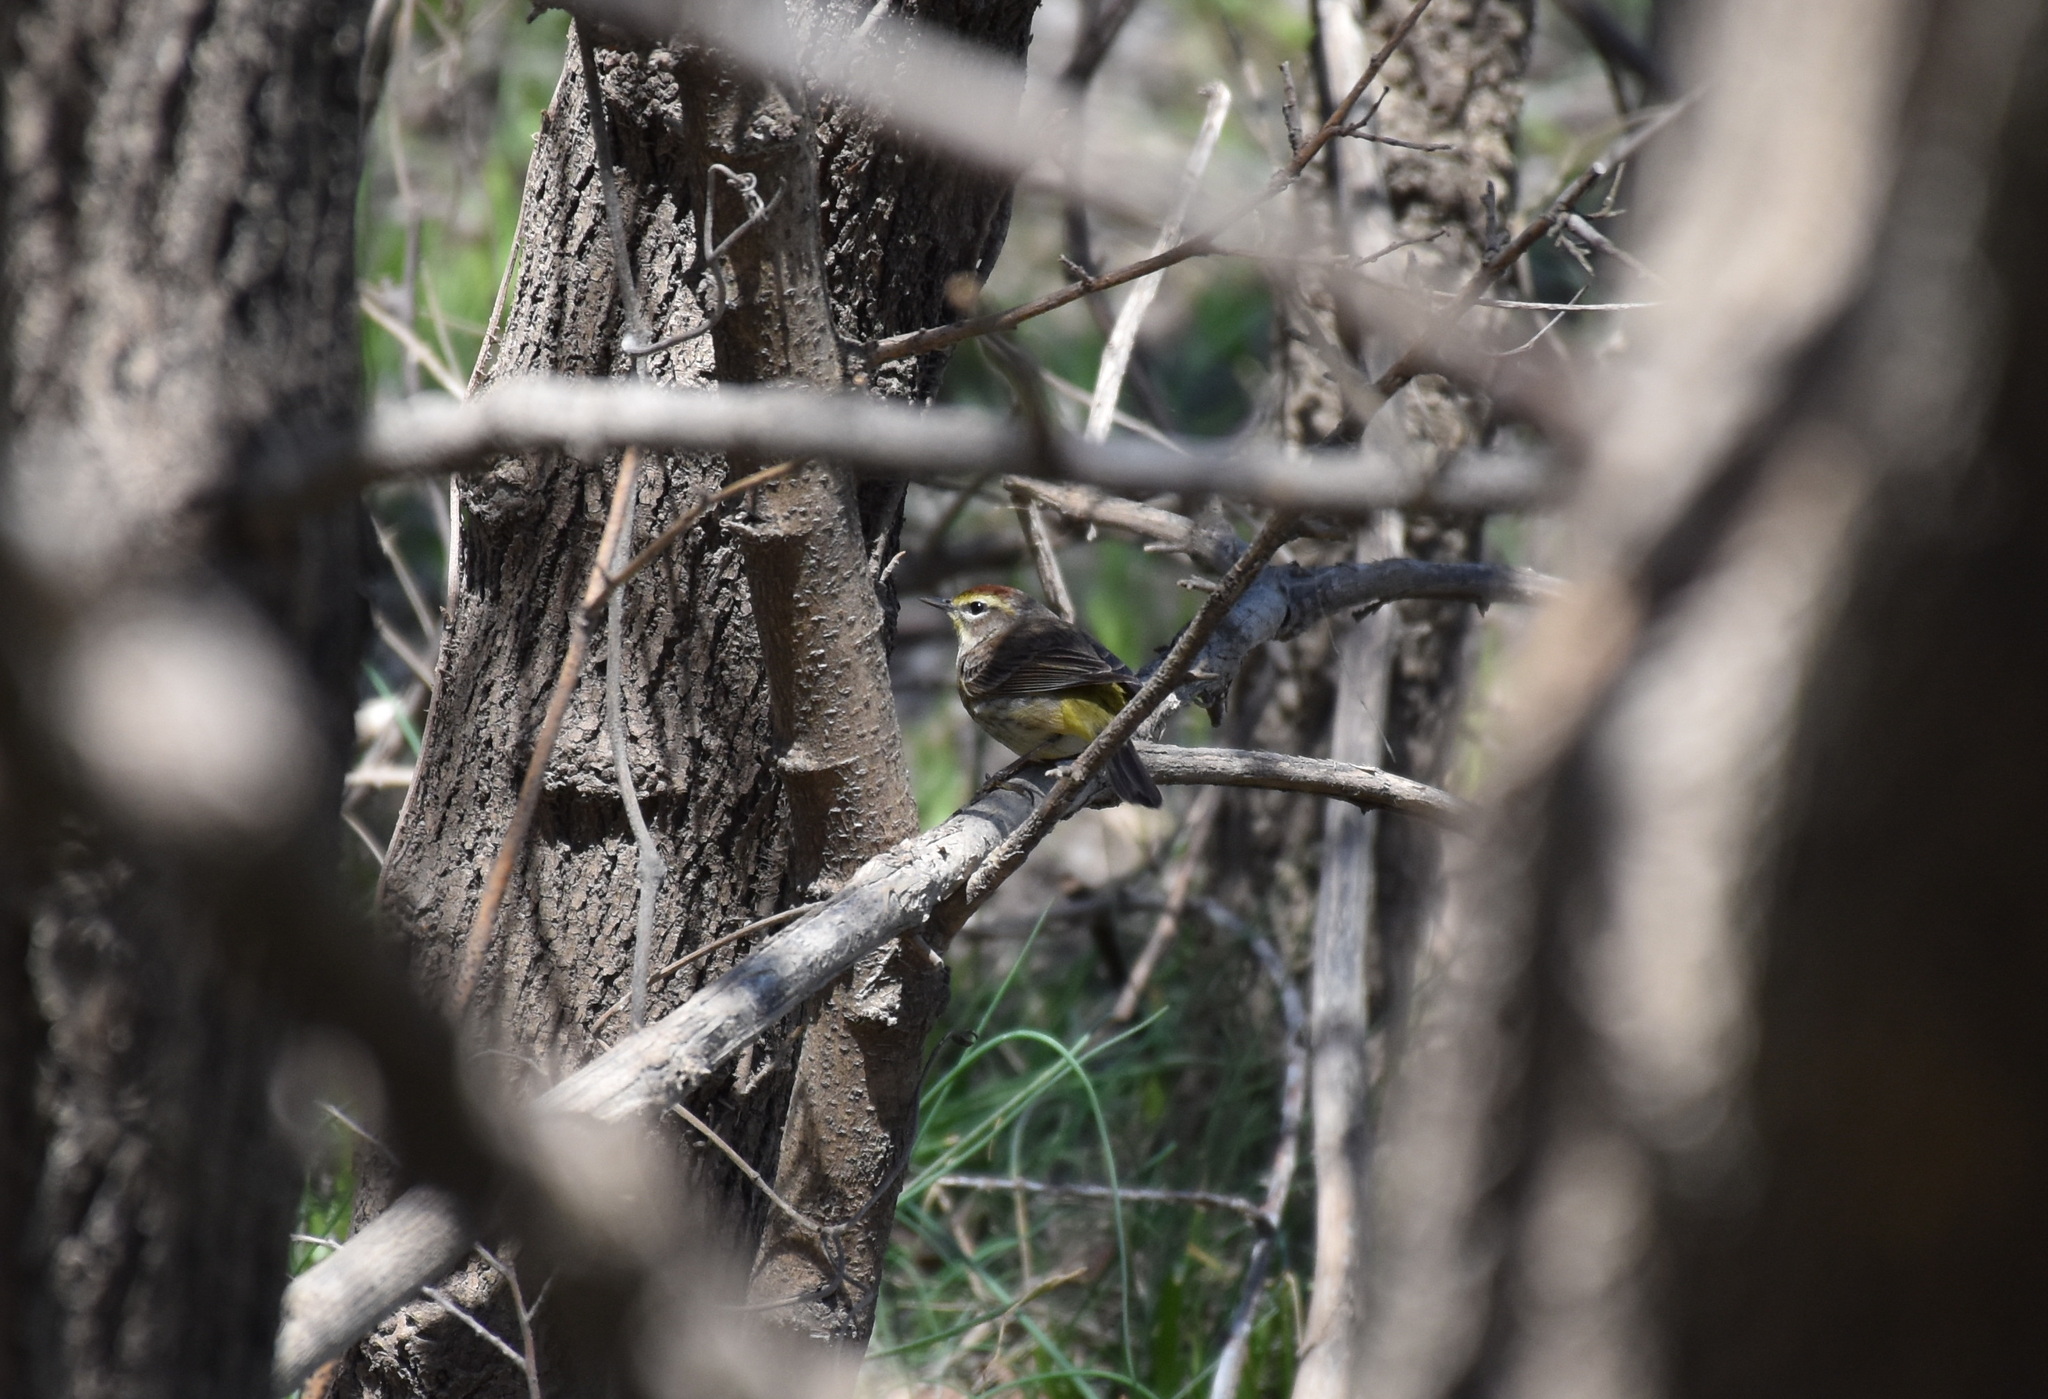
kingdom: Animalia
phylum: Chordata
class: Aves
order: Passeriformes
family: Parulidae
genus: Setophaga
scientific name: Setophaga palmarum
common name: Palm warbler
